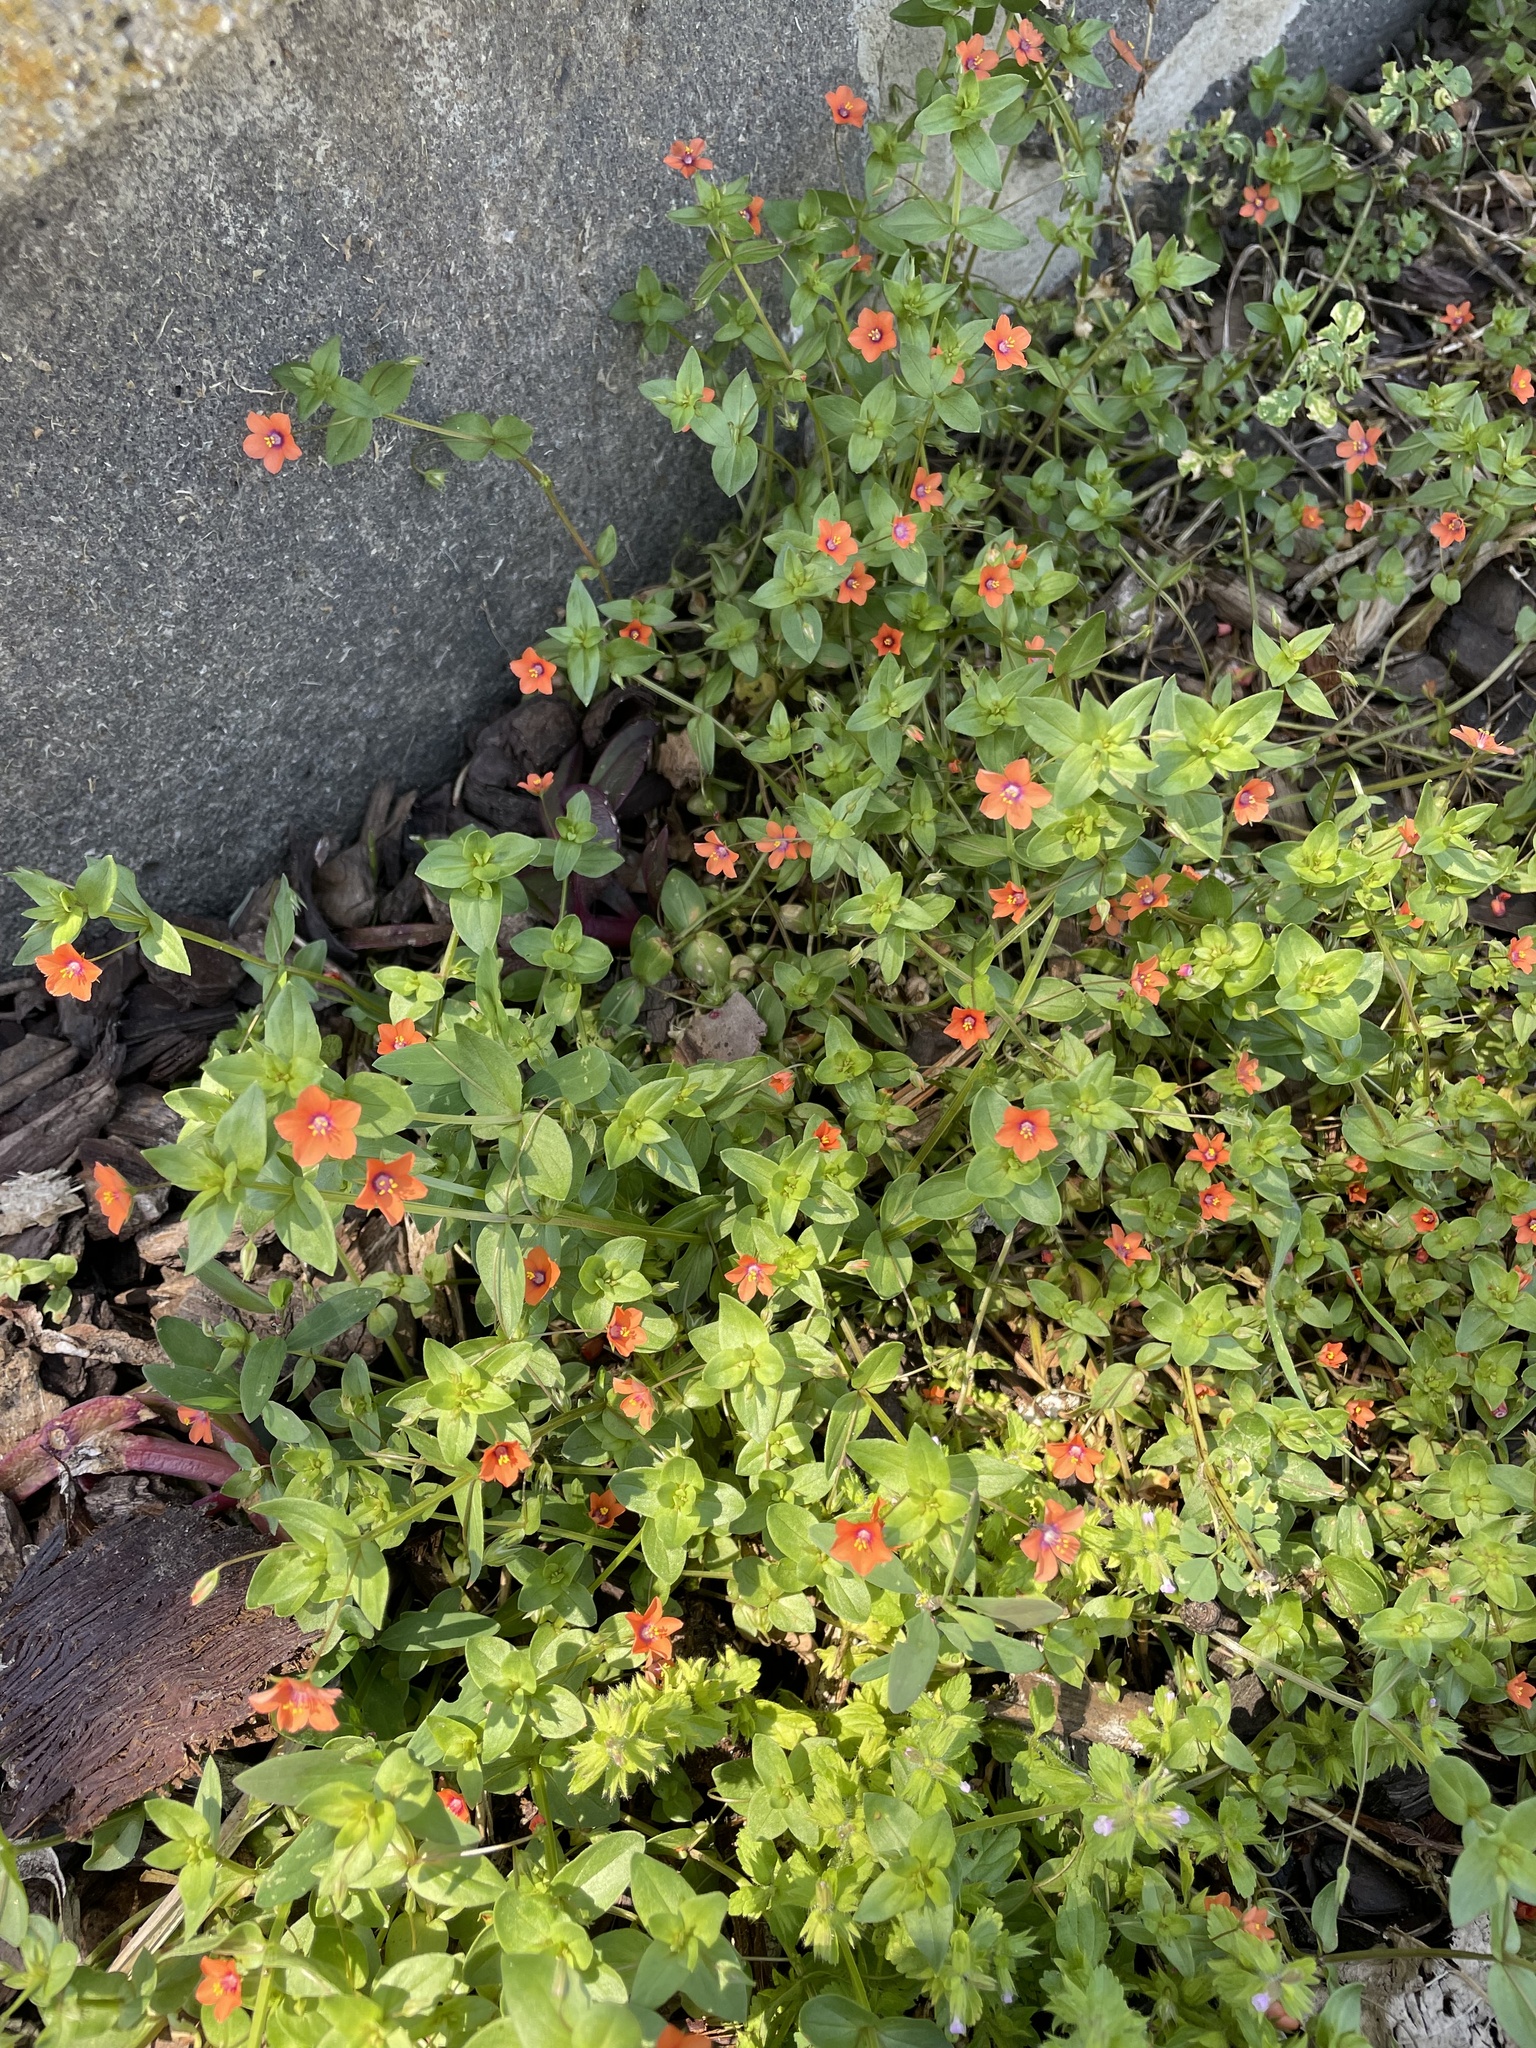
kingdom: Plantae
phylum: Tracheophyta
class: Magnoliopsida
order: Ericales
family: Primulaceae
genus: Lysimachia
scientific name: Lysimachia arvensis
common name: Scarlet pimpernel
